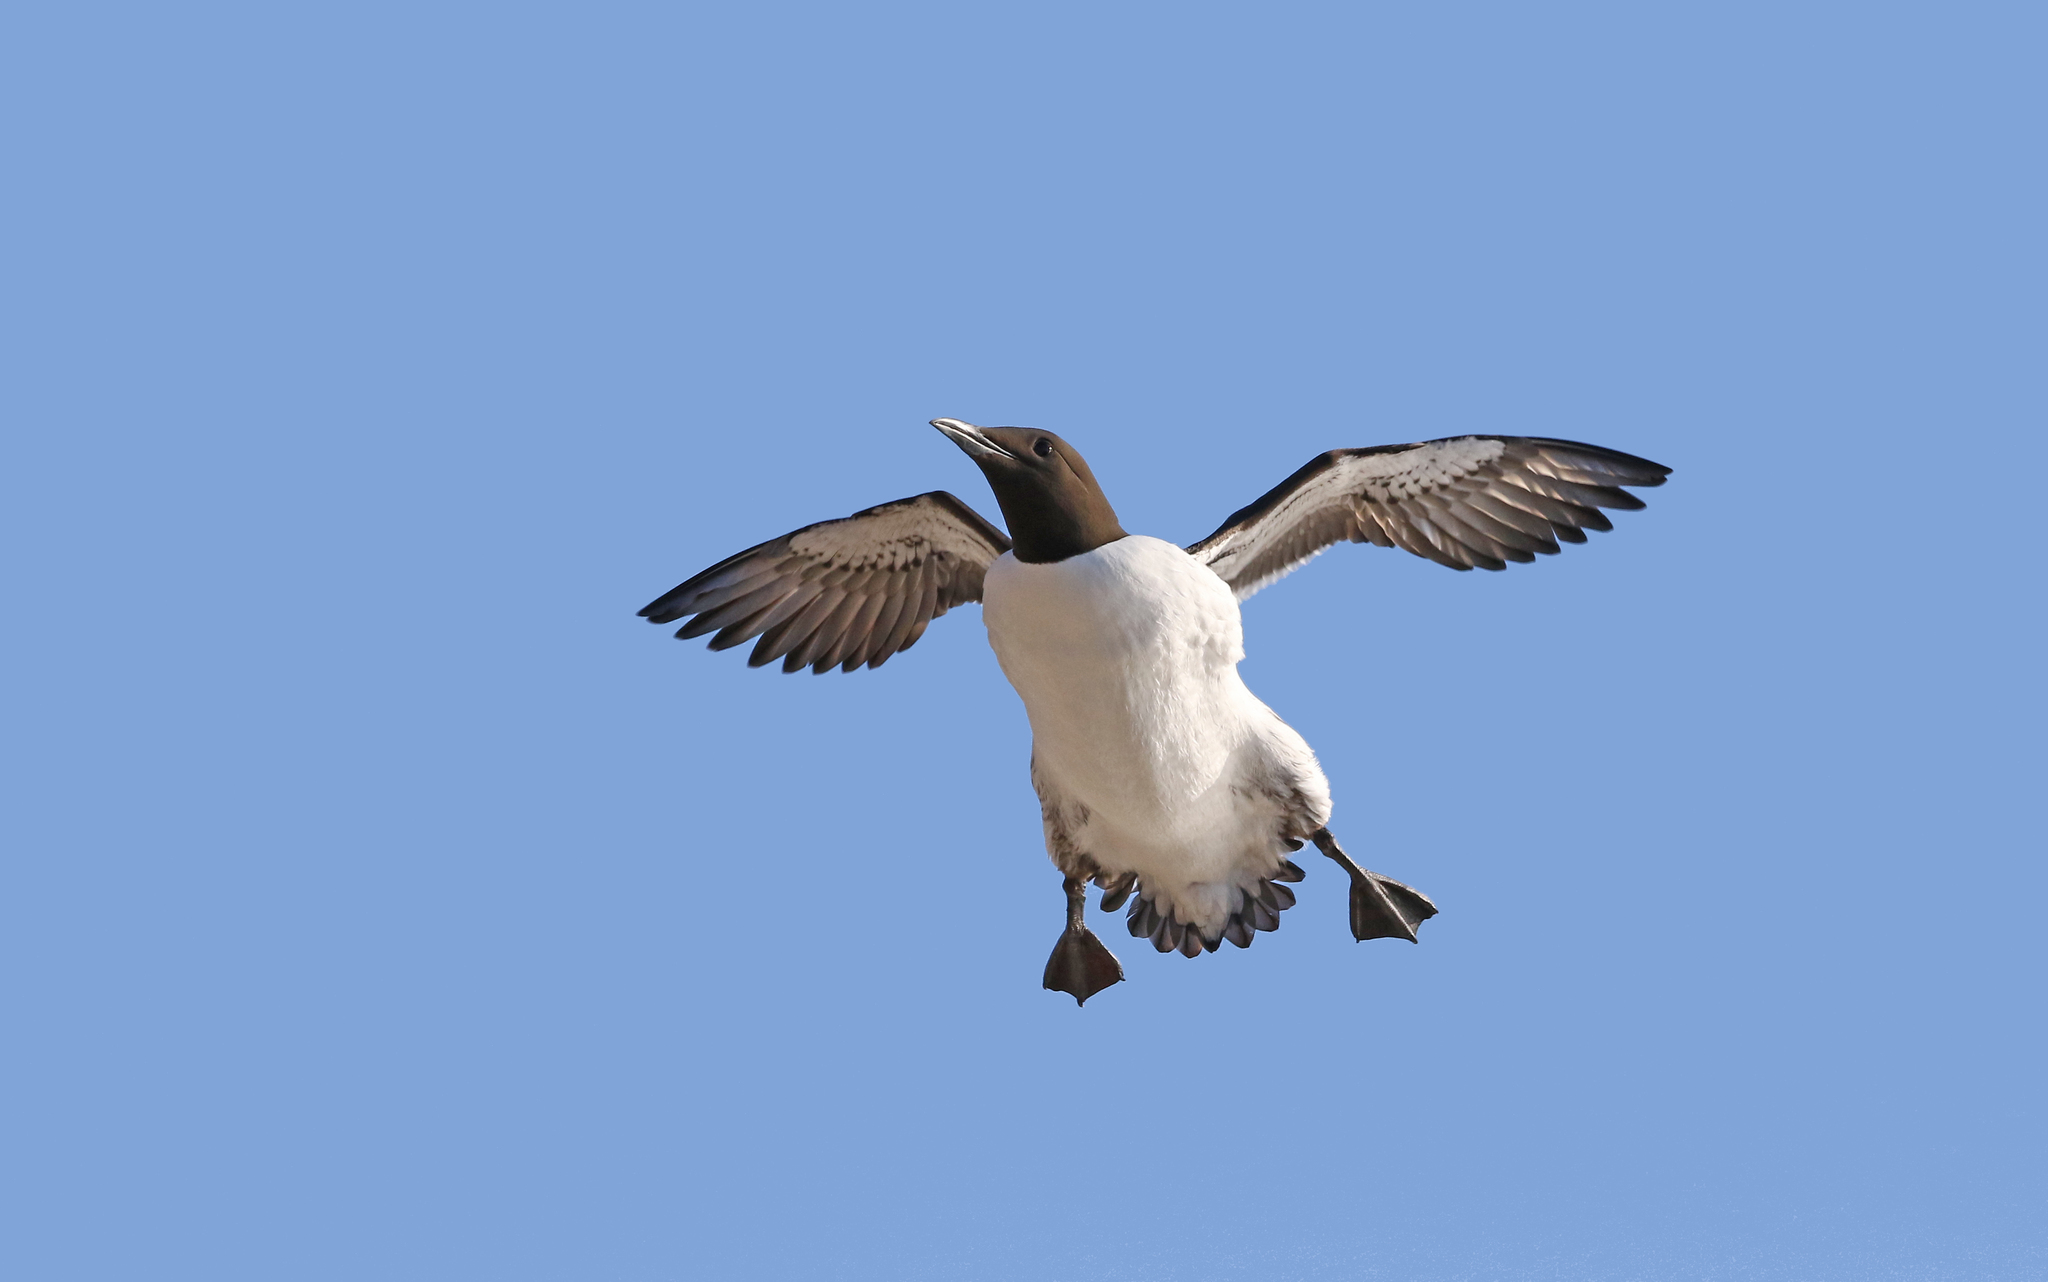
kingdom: Animalia
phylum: Chordata
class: Aves
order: Charadriiformes
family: Alcidae
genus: Uria
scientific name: Uria aalge
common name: Common murre
